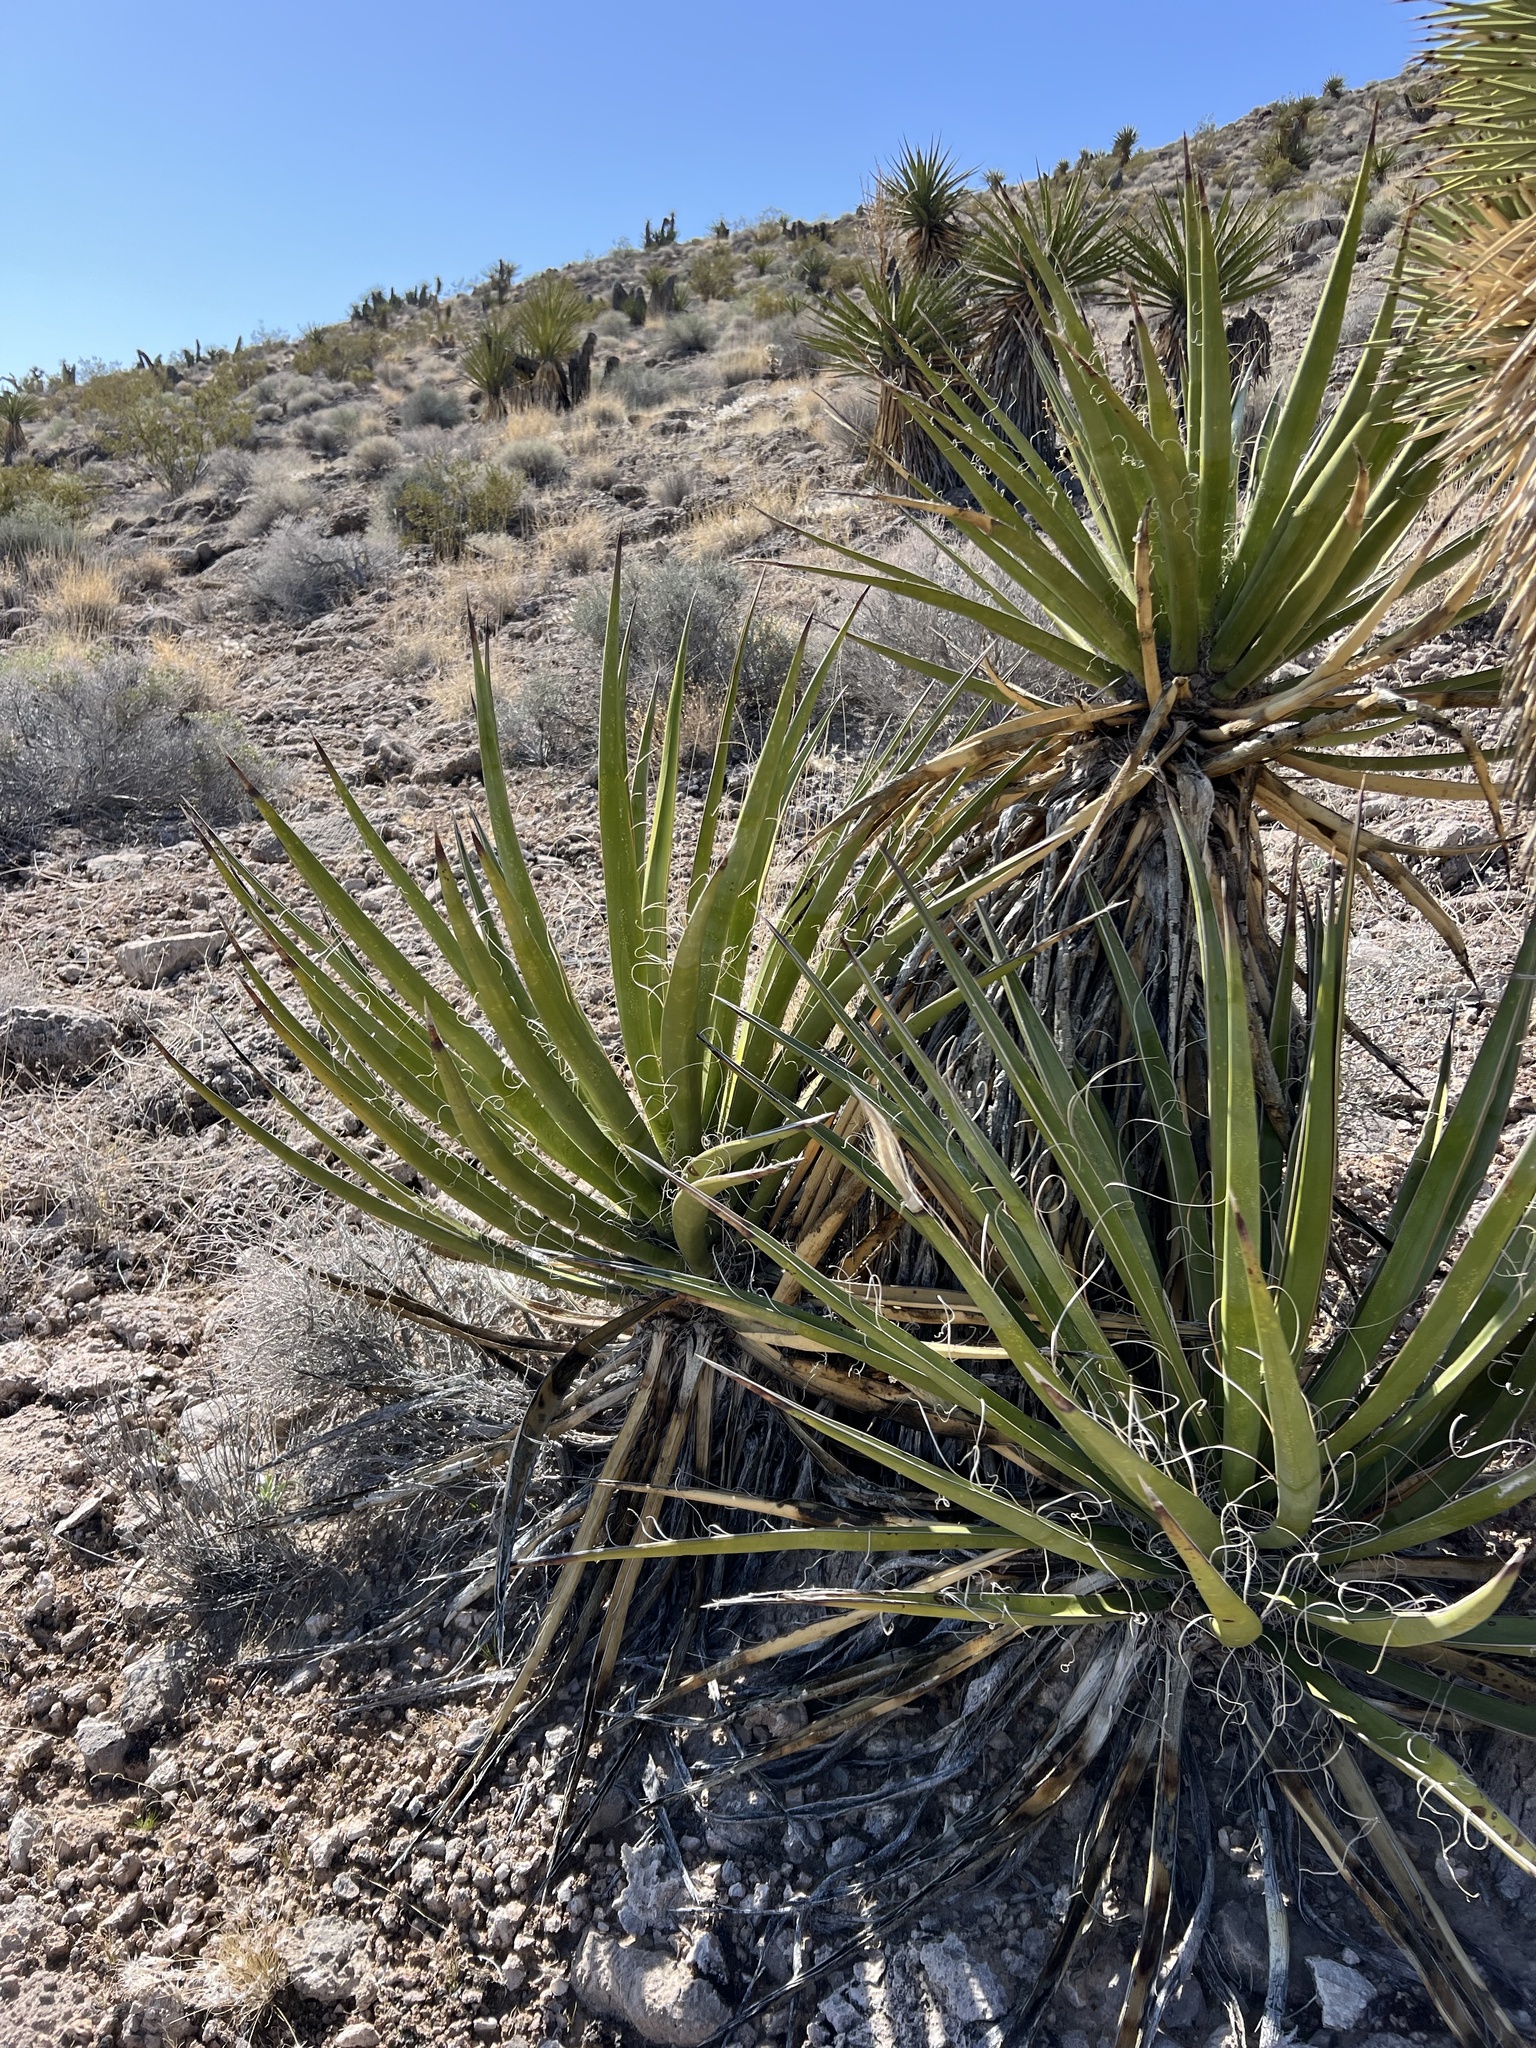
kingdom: Plantae
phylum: Tracheophyta
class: Liliopsida
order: Asparagales
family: Asparagaceae
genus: Yucca
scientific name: Yucca schidigera
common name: Mojave yucca
